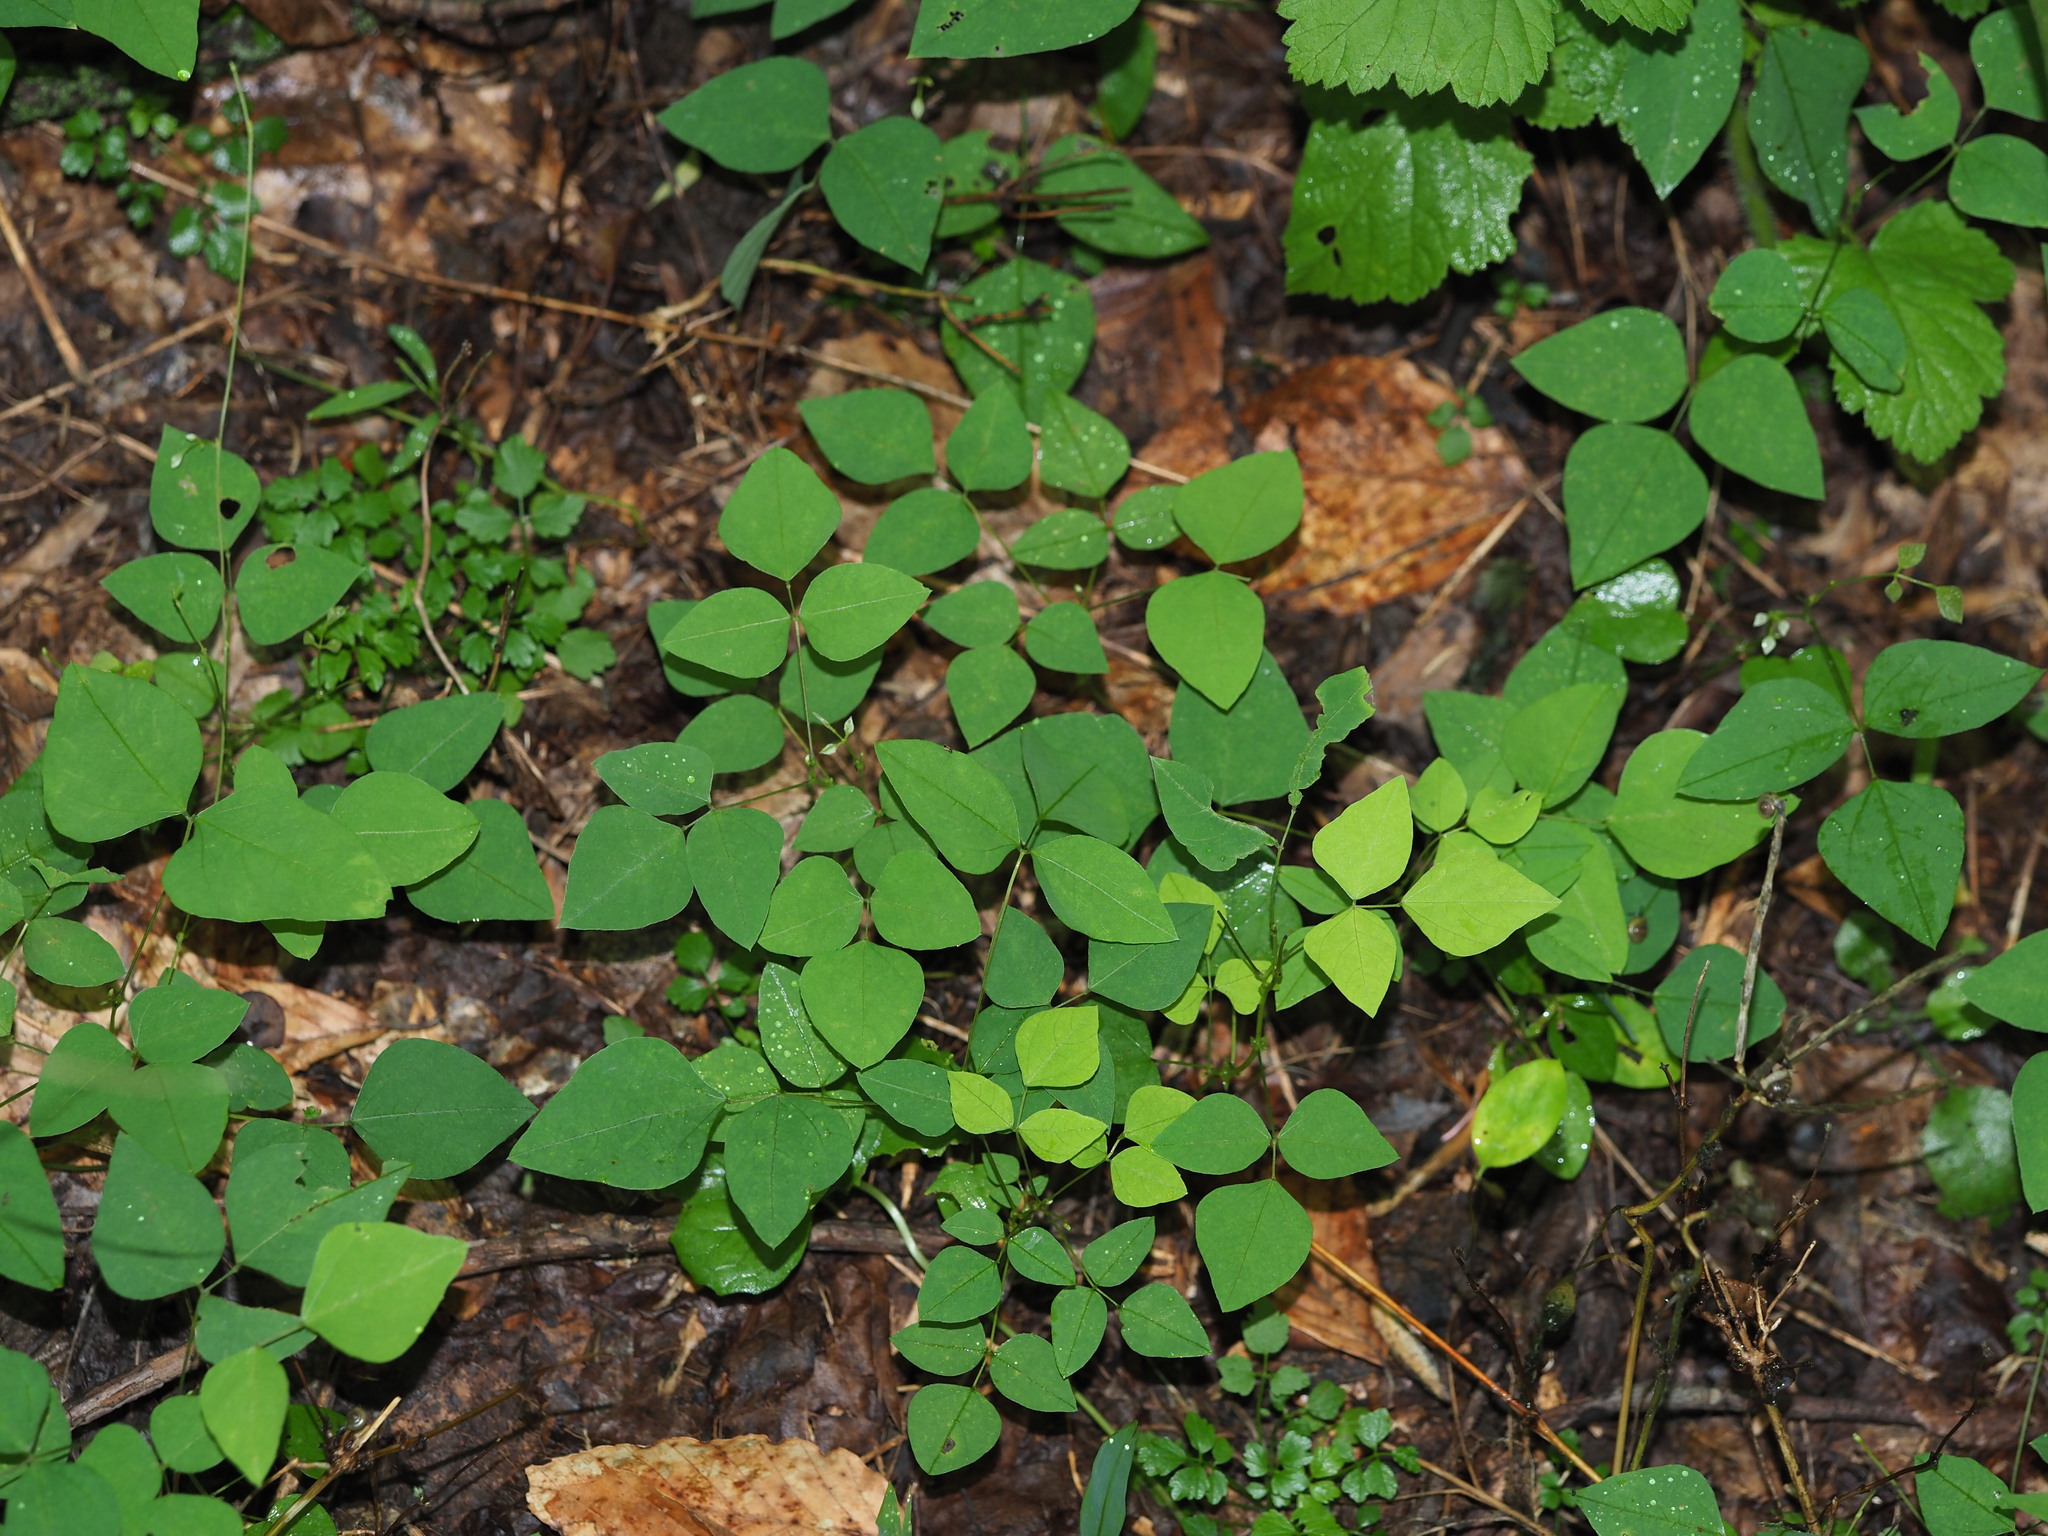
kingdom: Plantae
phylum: Tracheophyta
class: Magnoliopsida
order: Fabales
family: Fabaceae
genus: Amphicarpaea
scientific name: Amphicarpaea bracteata
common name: American hog peanut
